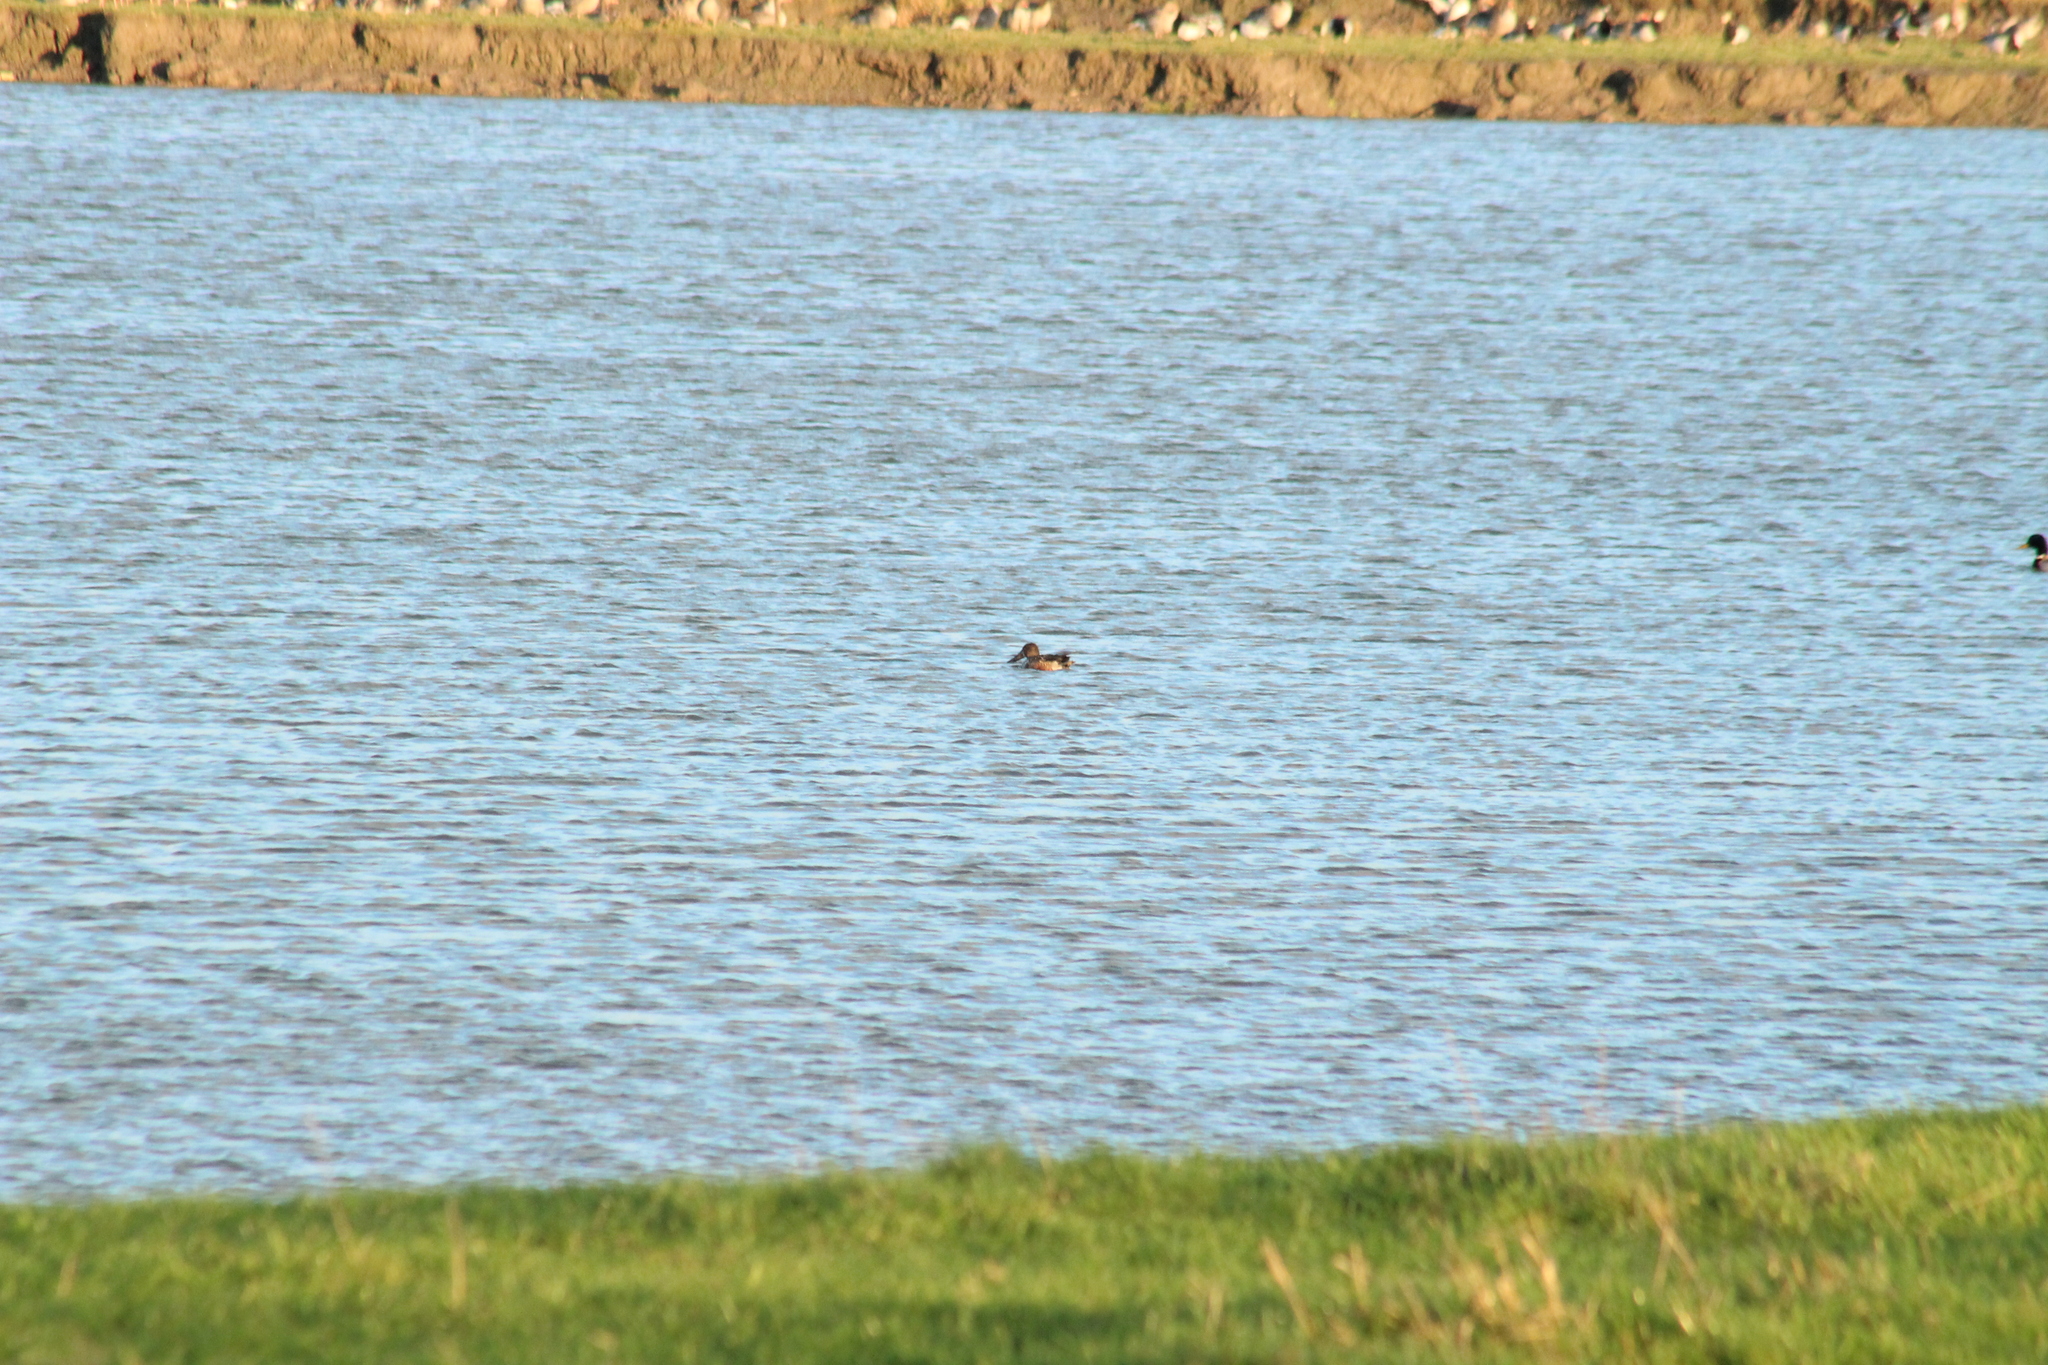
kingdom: Animalia
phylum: Chordata
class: Aves
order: Anseriformes
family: Anatidae
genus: Spatula
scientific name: Spatula clypeata
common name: Northern shoveler
